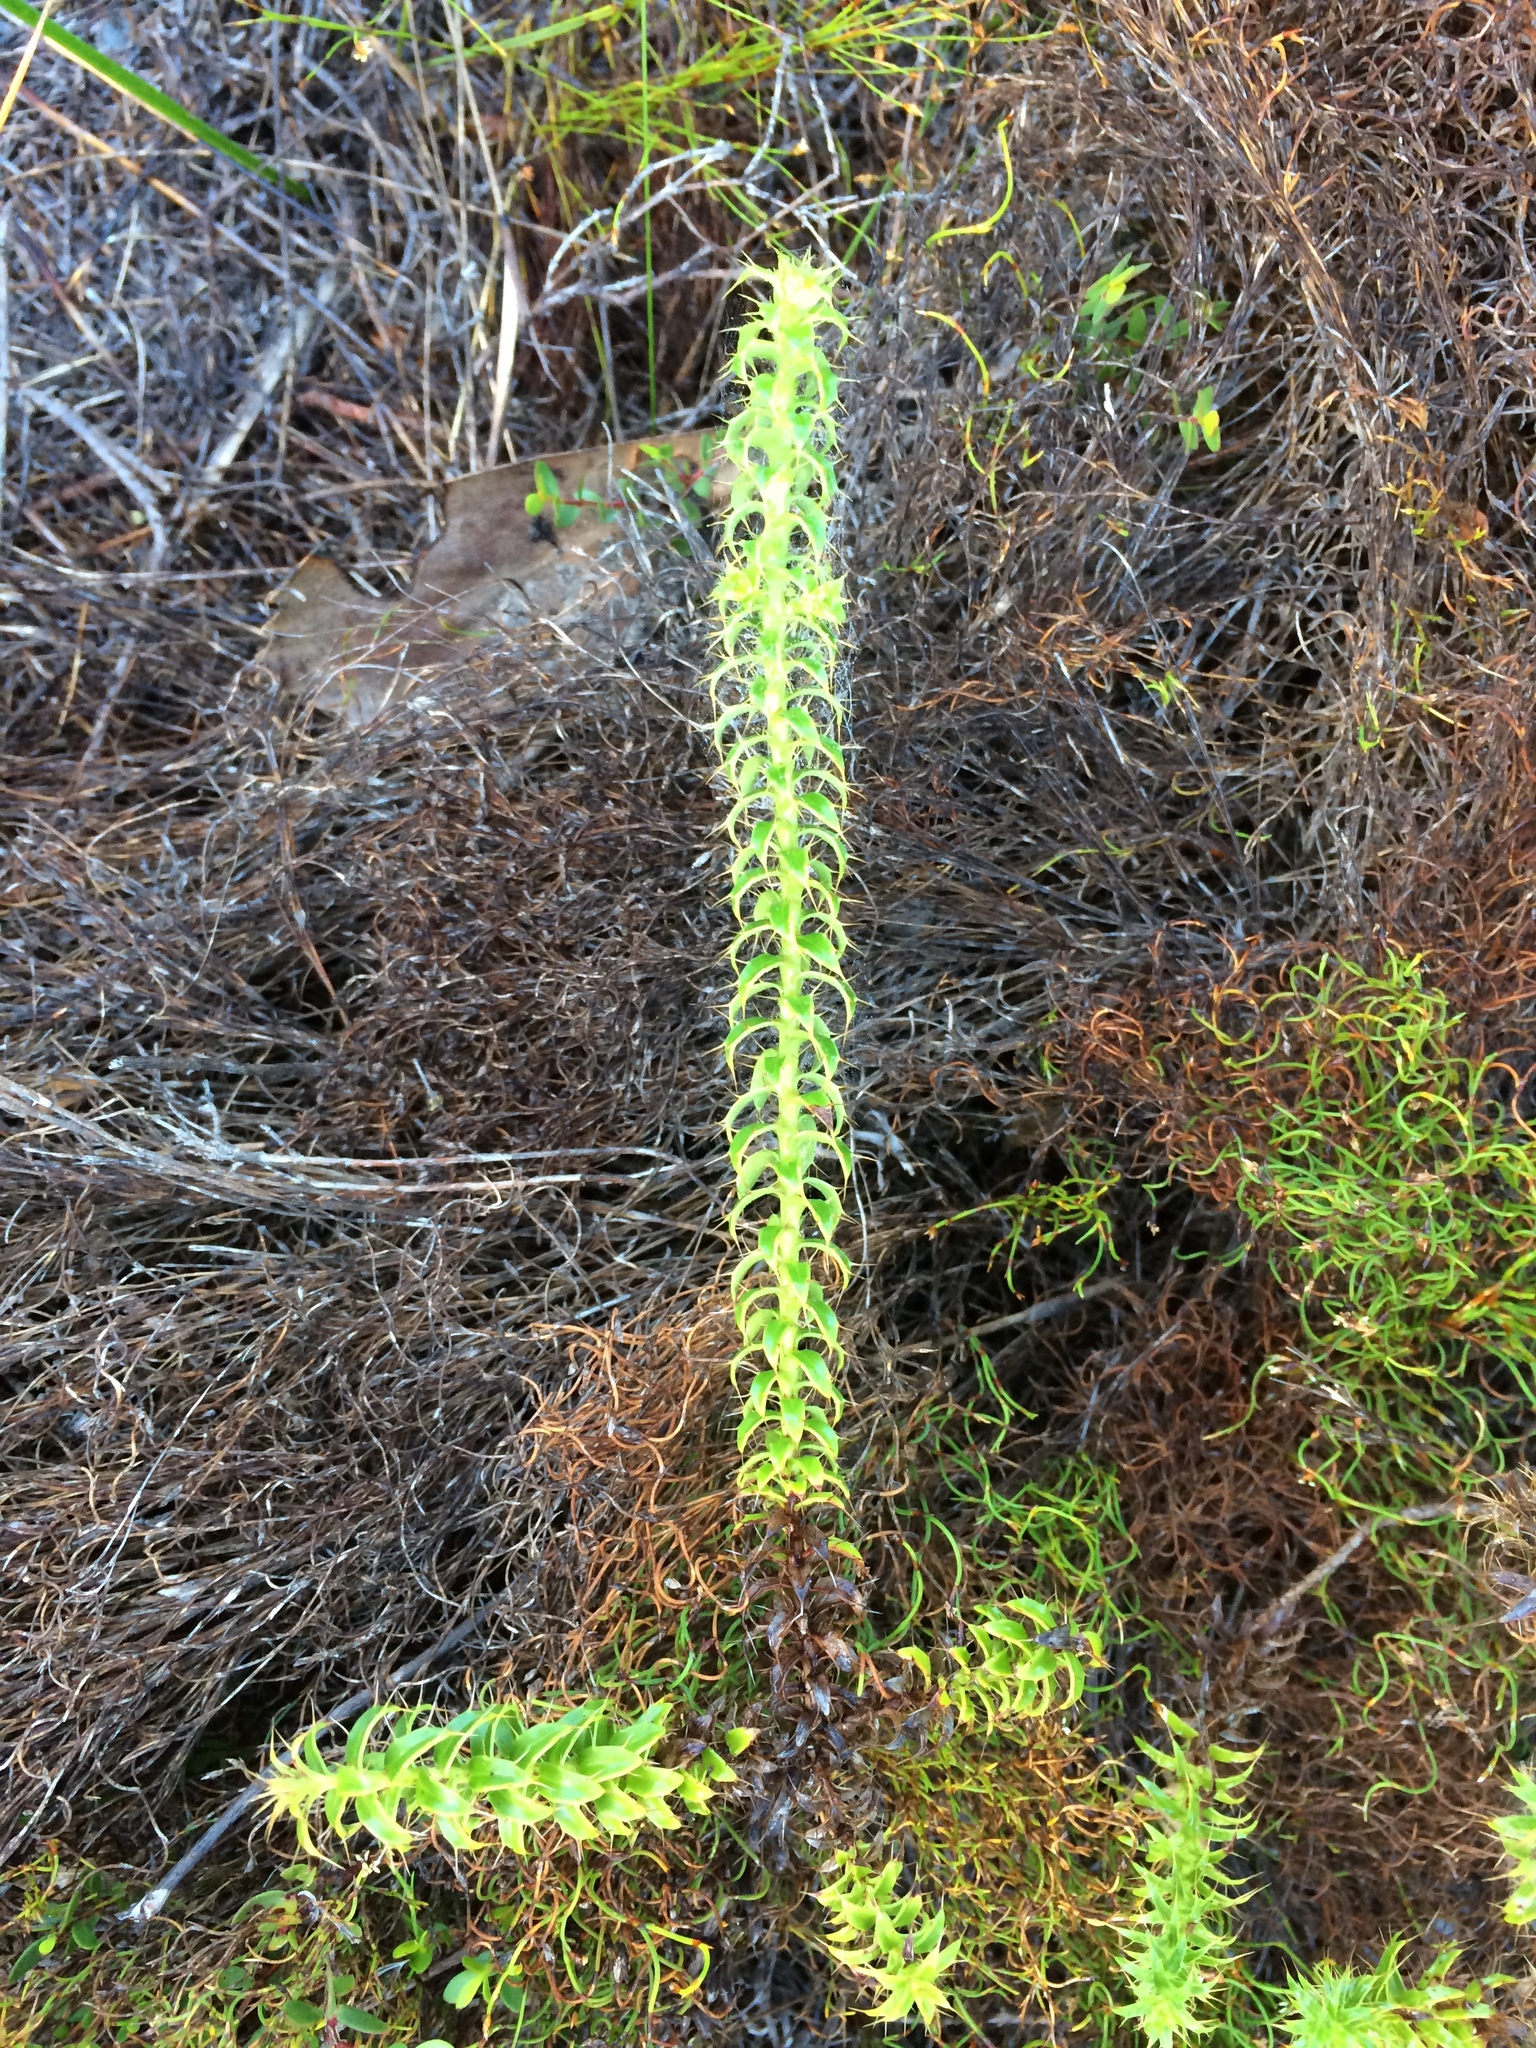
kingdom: Plantae
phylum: Tracheophyta
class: Magnoliopsida
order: Asterales
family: Asteraceae
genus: Cullumia
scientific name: Cullumia setosa
